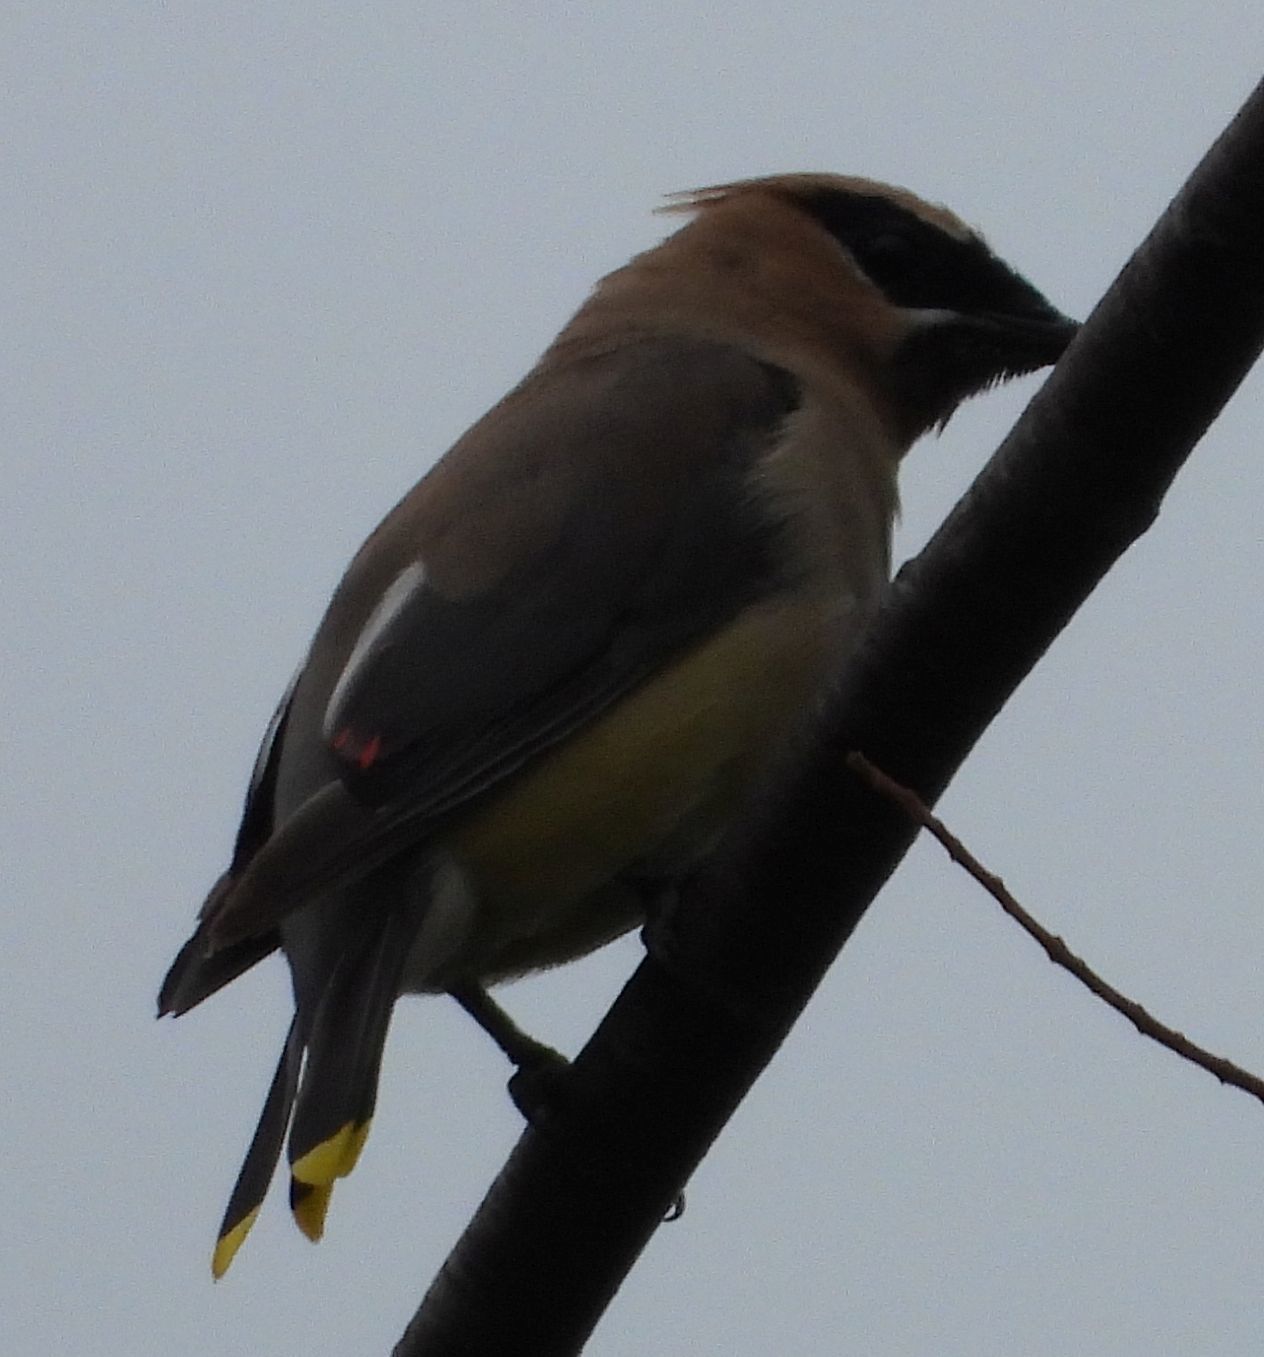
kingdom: Animalia
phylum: Chordata
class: Aves
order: Passeriformes
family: Bombycillidae
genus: Bombycilla
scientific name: Bombycilla cedrorum
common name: Cedar waxwing
